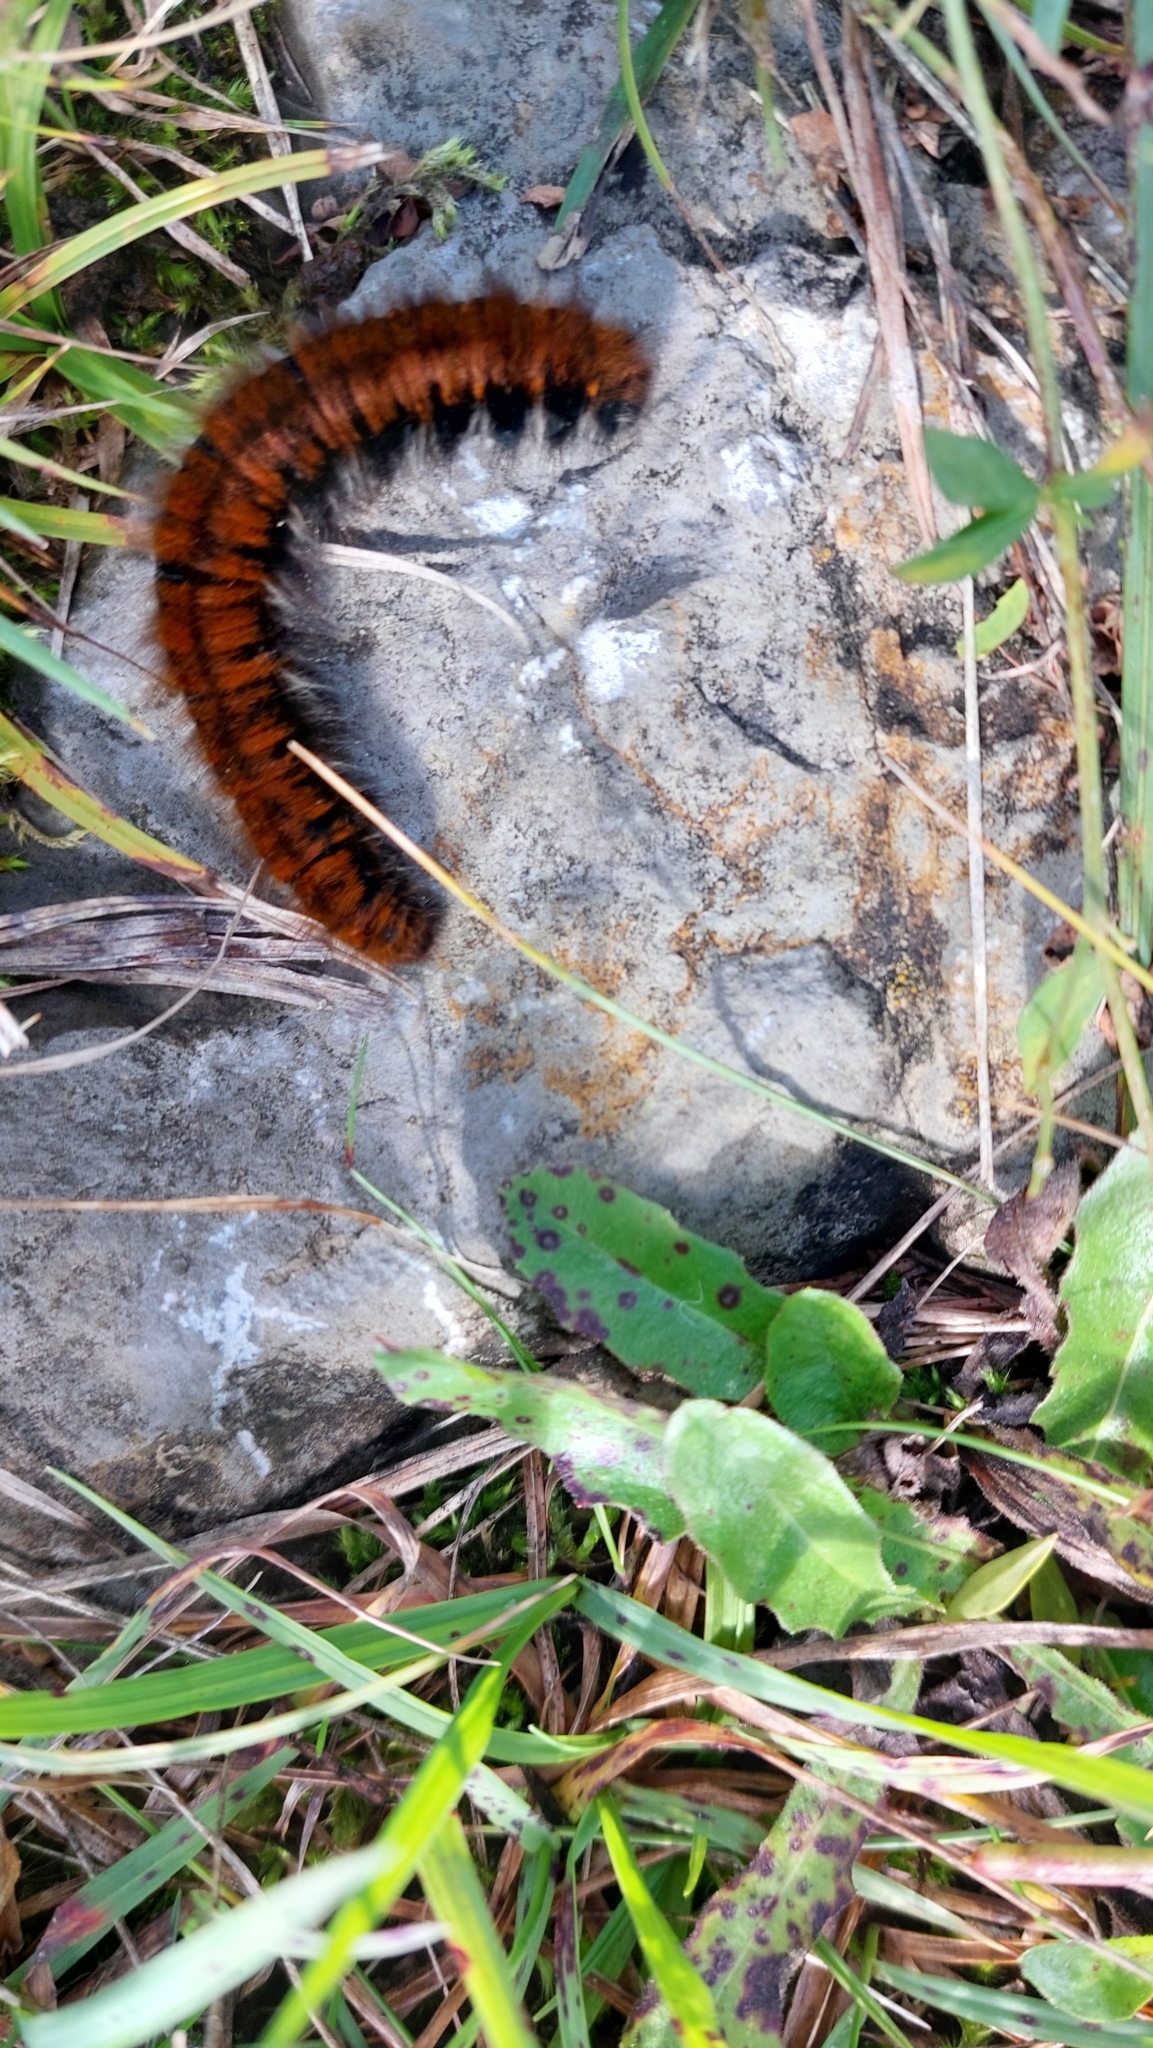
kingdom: Animalia
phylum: Arthropoda
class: Insecta
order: Lepidoptera
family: Lasiocampidae
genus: Macrothylacia
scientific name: Macrothylacia rubi
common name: Fox moth
